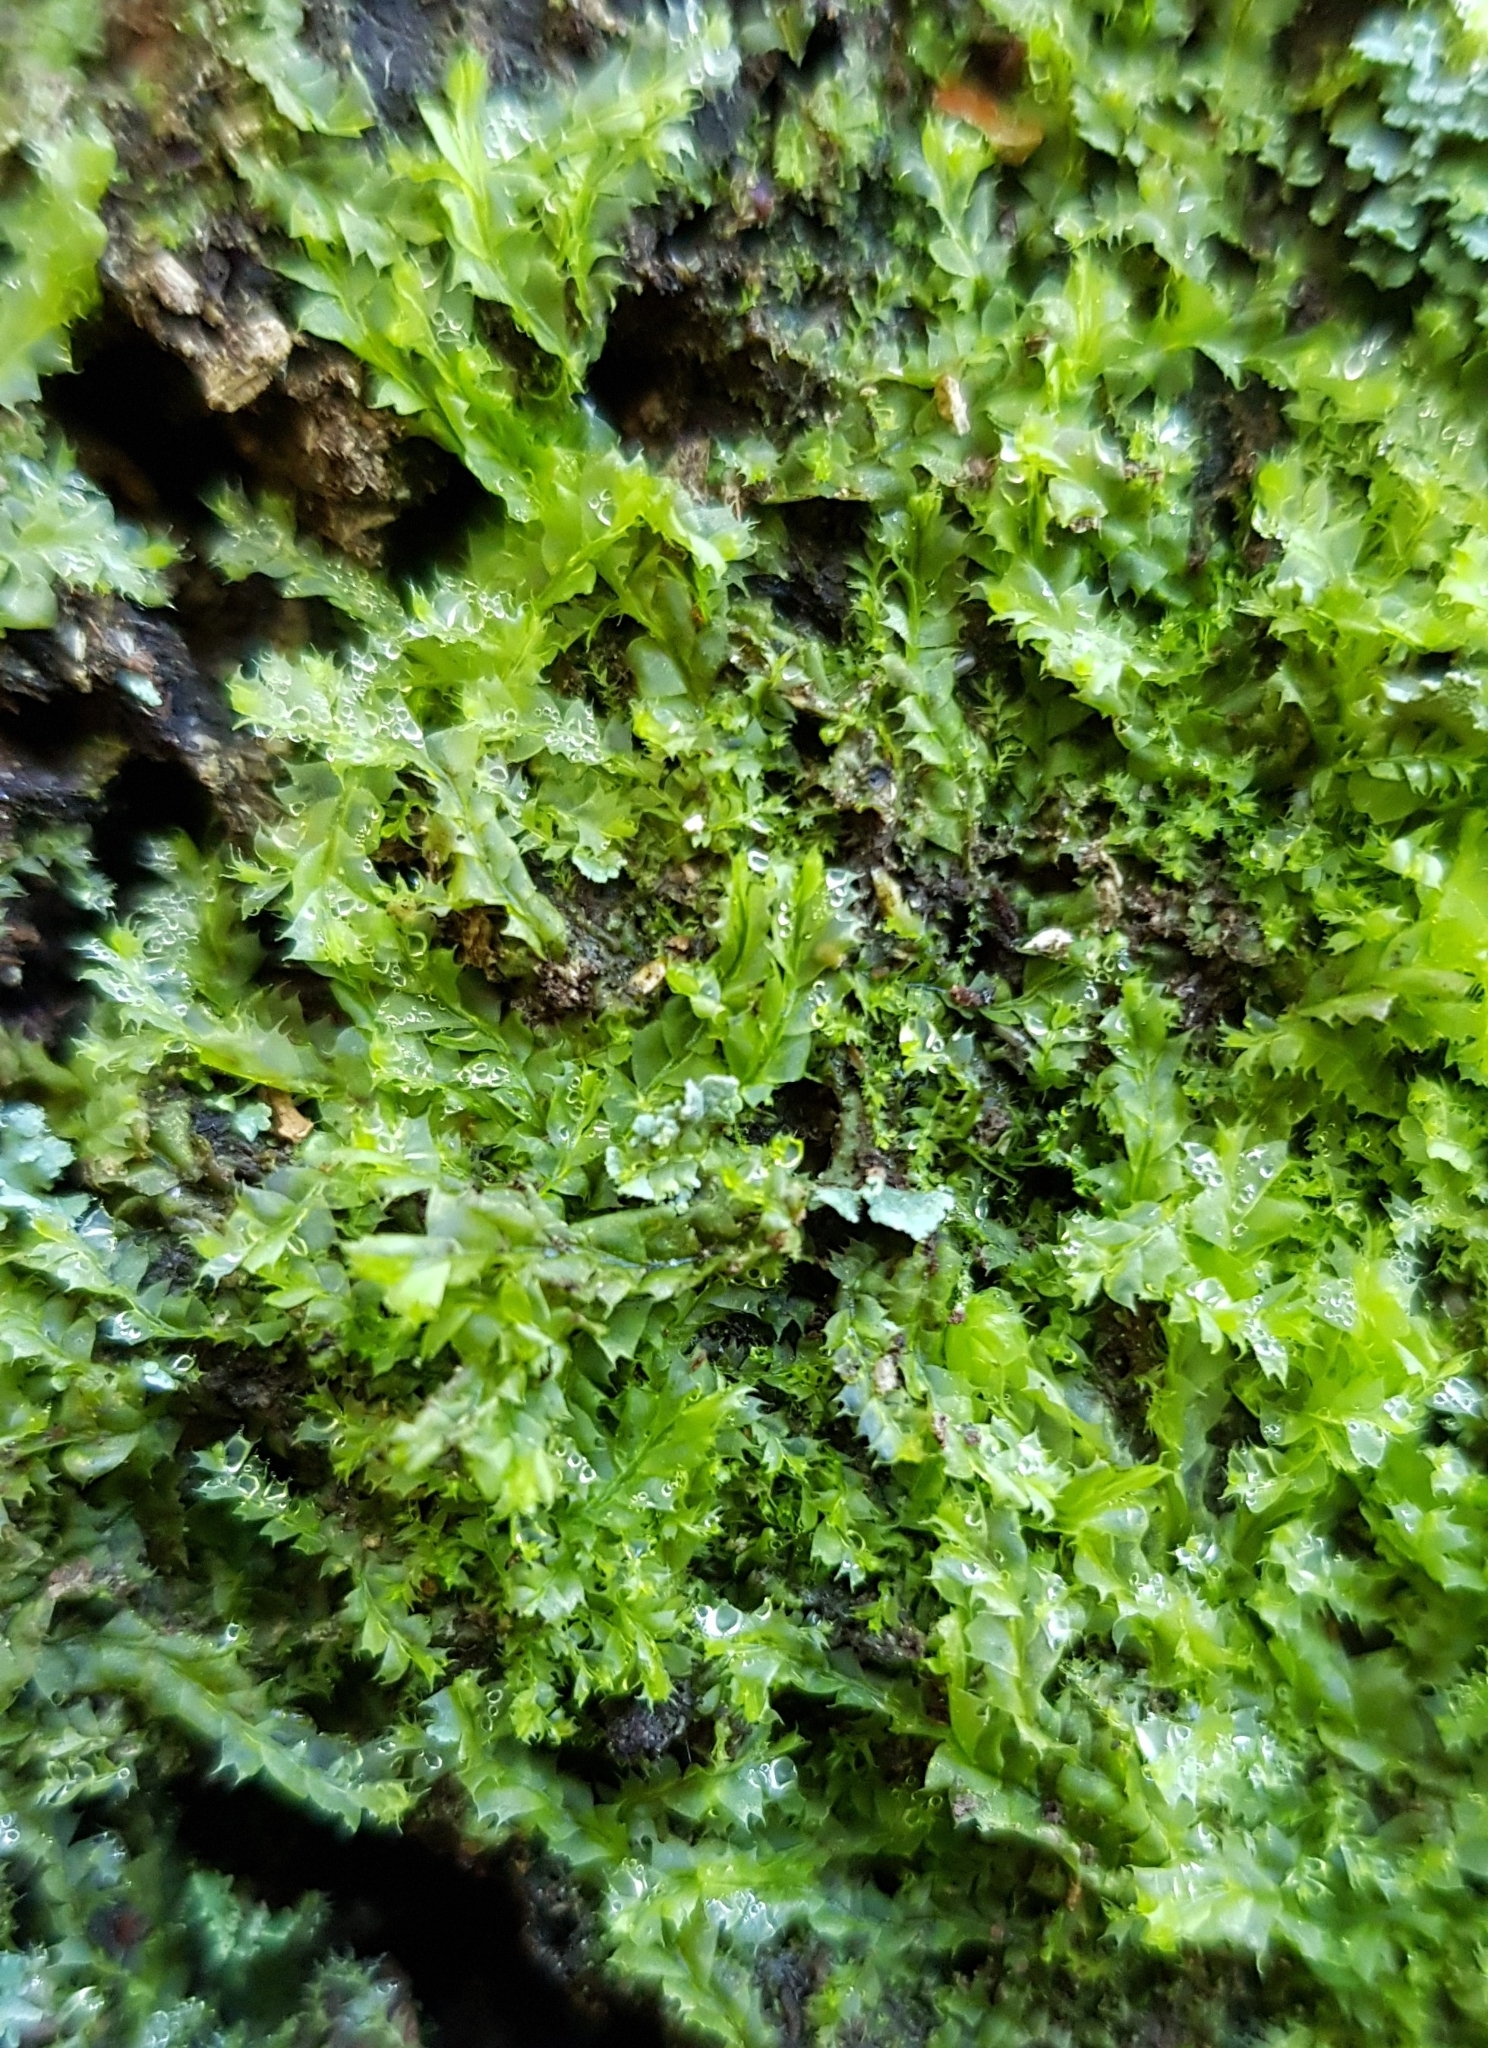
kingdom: Plantae
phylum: Marchantiophyta
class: Jungermanniopsida
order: Jungermanniales
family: Lophocoleaceae
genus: Lophocolea
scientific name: Lophocolea bidentata
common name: Bifid crestwort
